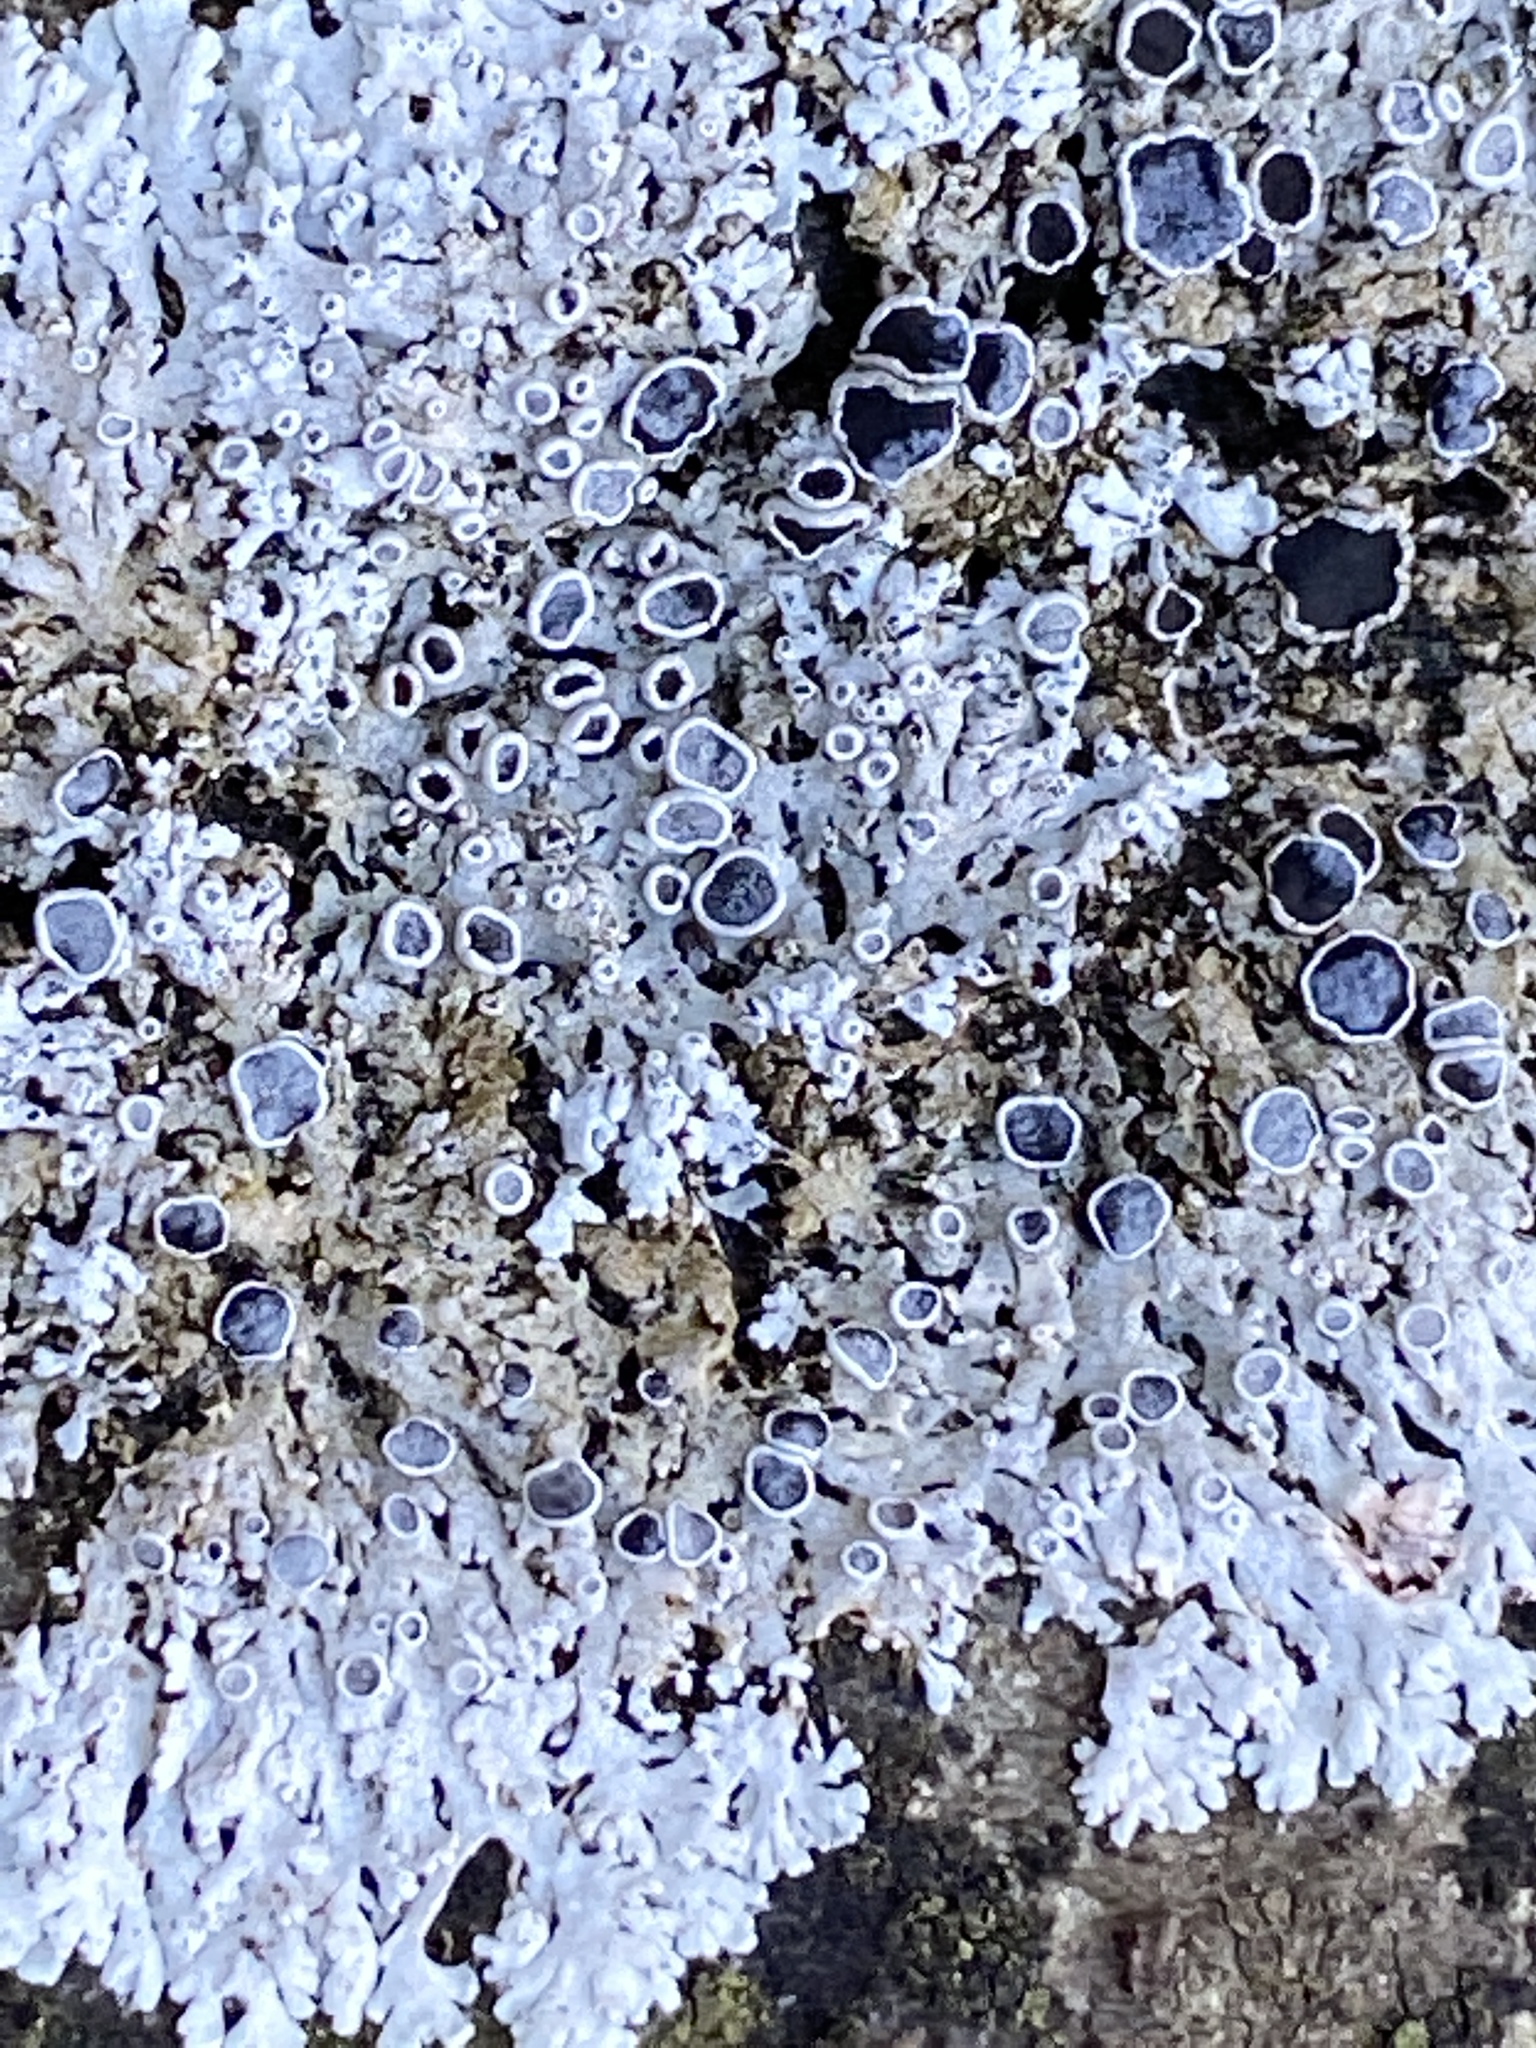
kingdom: Fungi
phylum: Ascomycota
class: Lecanoromycetes
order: Caliciales
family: Physciaceae
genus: Physcia
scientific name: Physcia stellaris
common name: Star rosette lichen
